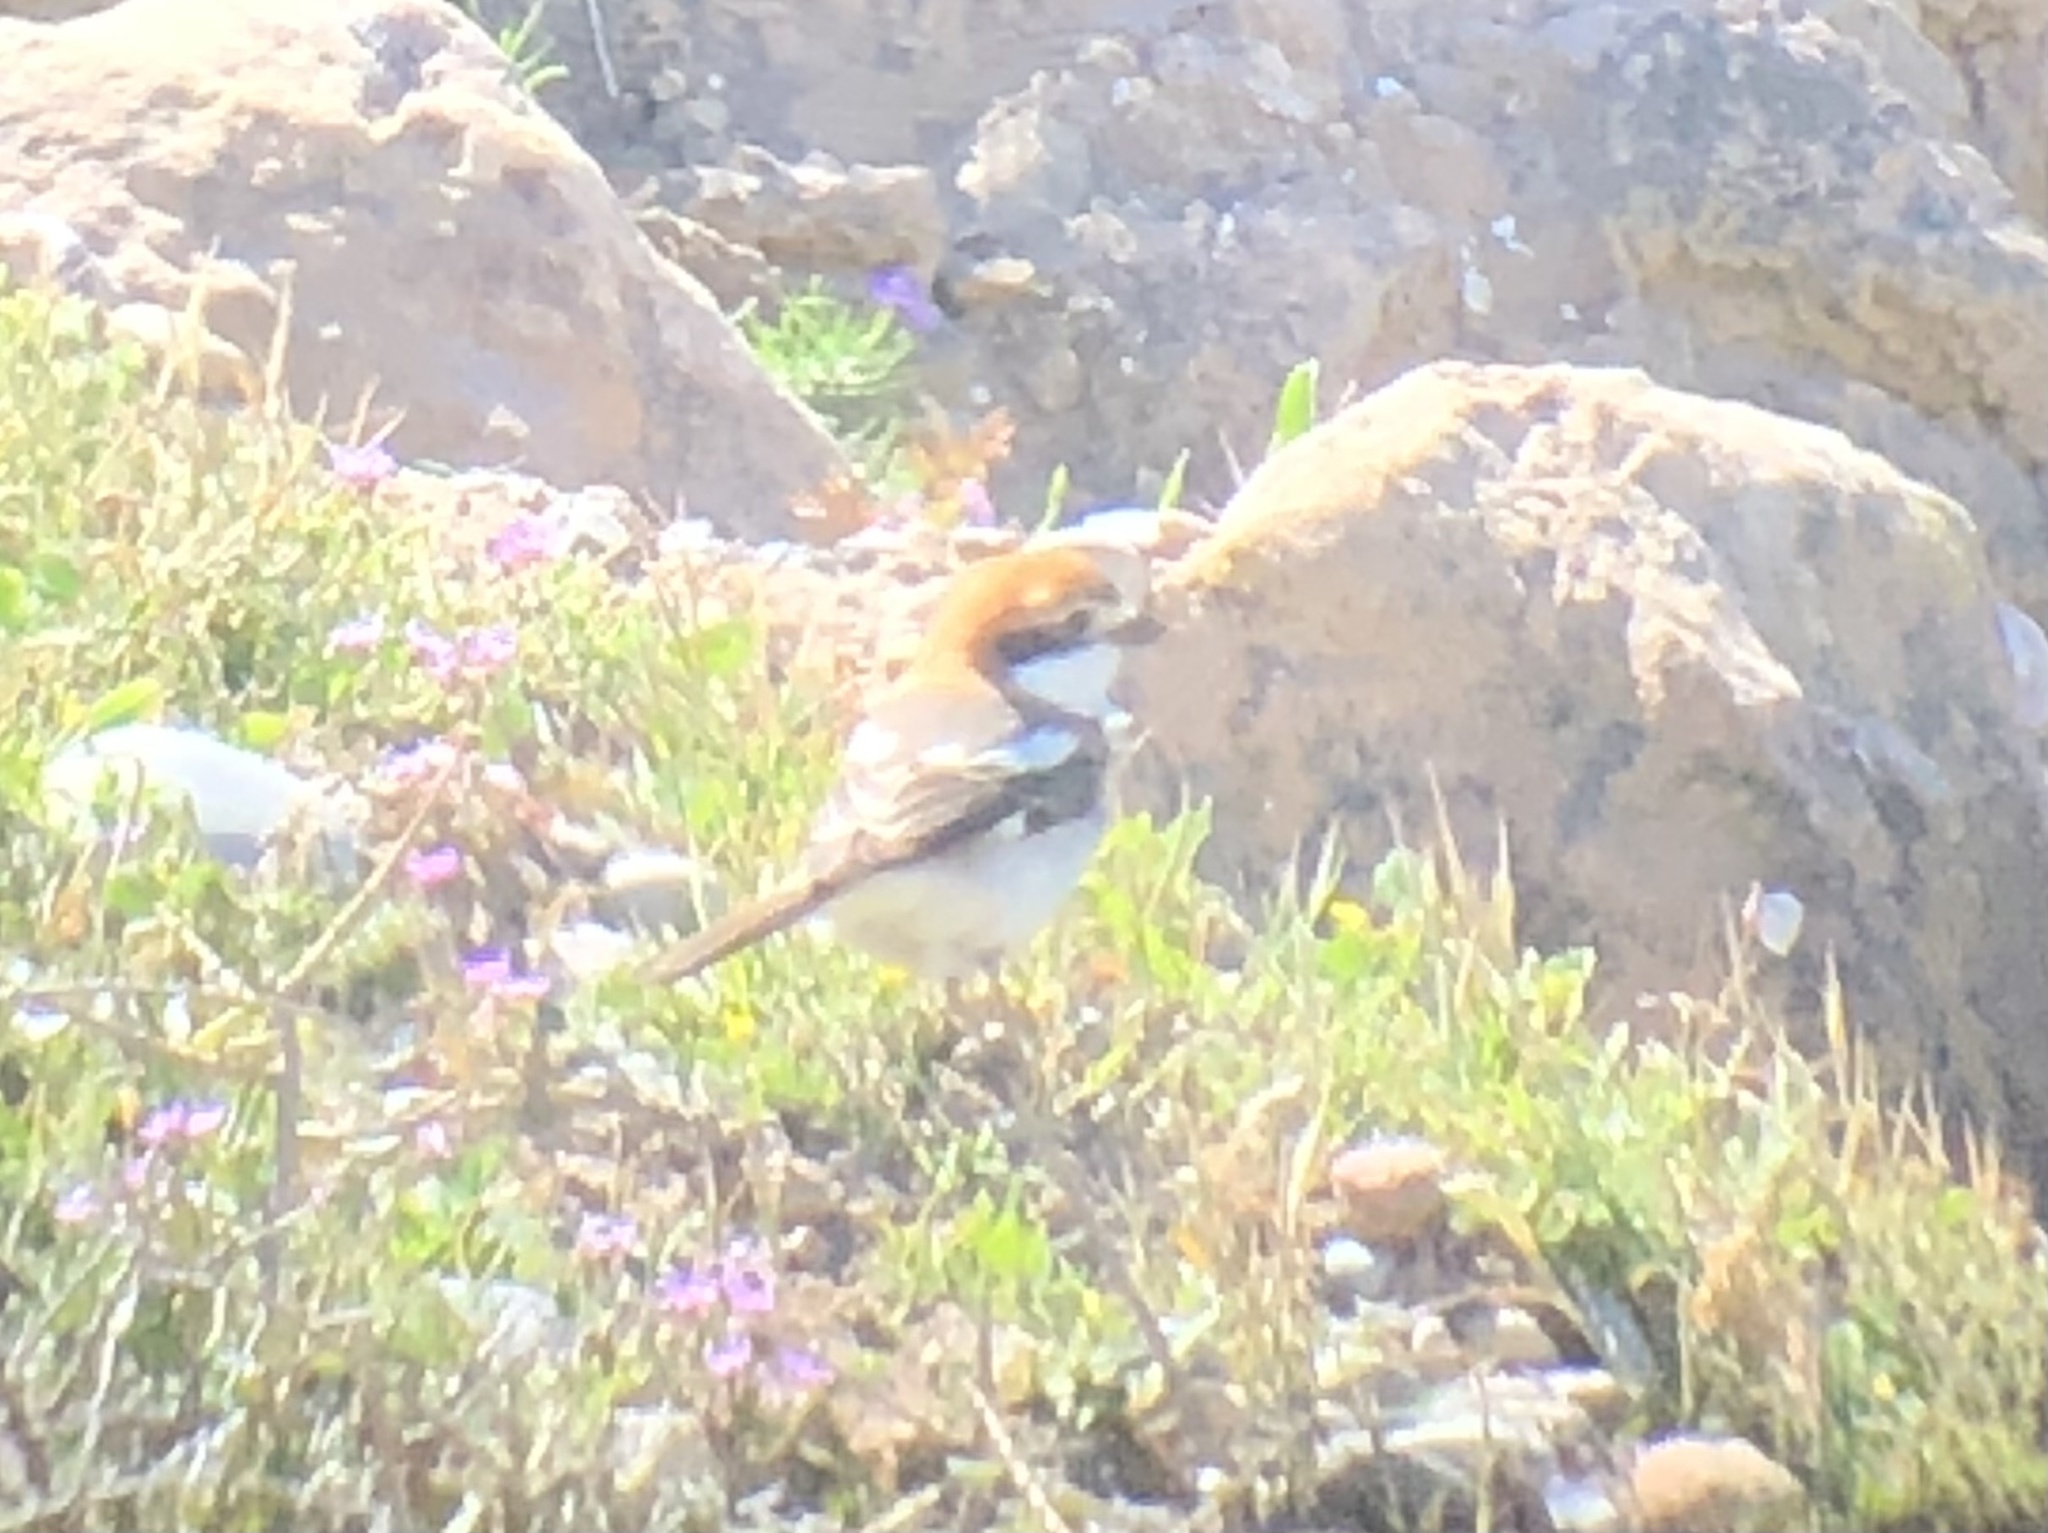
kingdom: Animalia
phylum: Chordata
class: Aves
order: Passeriformes
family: Laniidae
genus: Lanius
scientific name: Lanius senator
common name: Woodchat shrike
